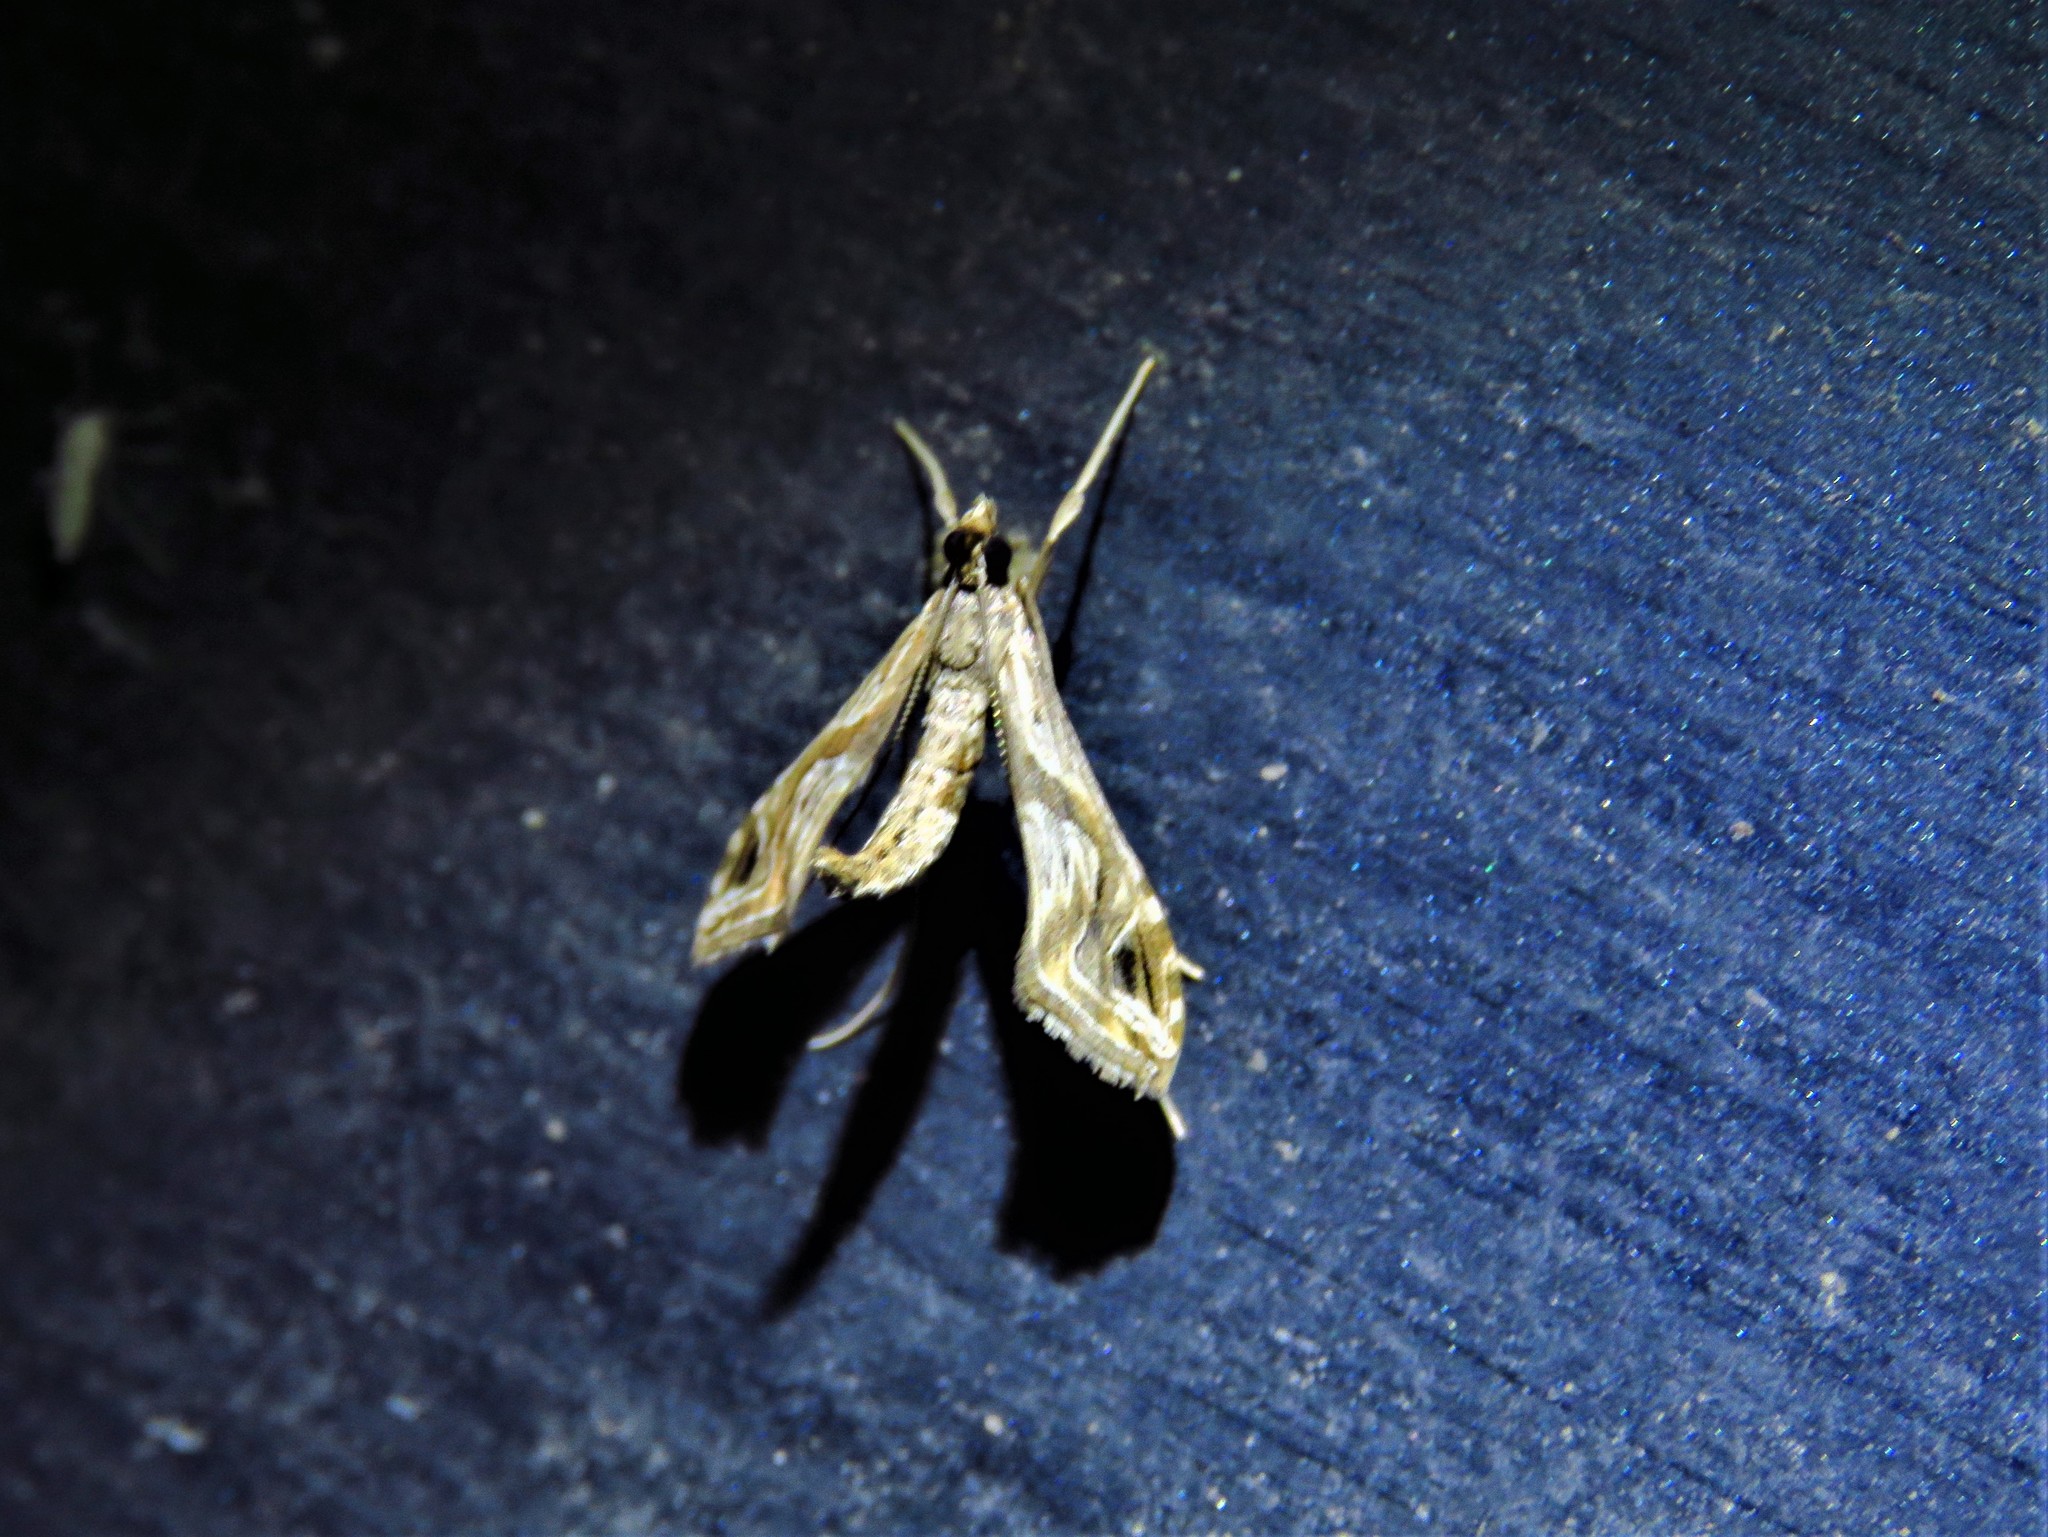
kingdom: Animalia
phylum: Arthropoda
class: Insecta
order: Lepidoptera
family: Crambidae
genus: Lineodes
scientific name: Lineodes integra
